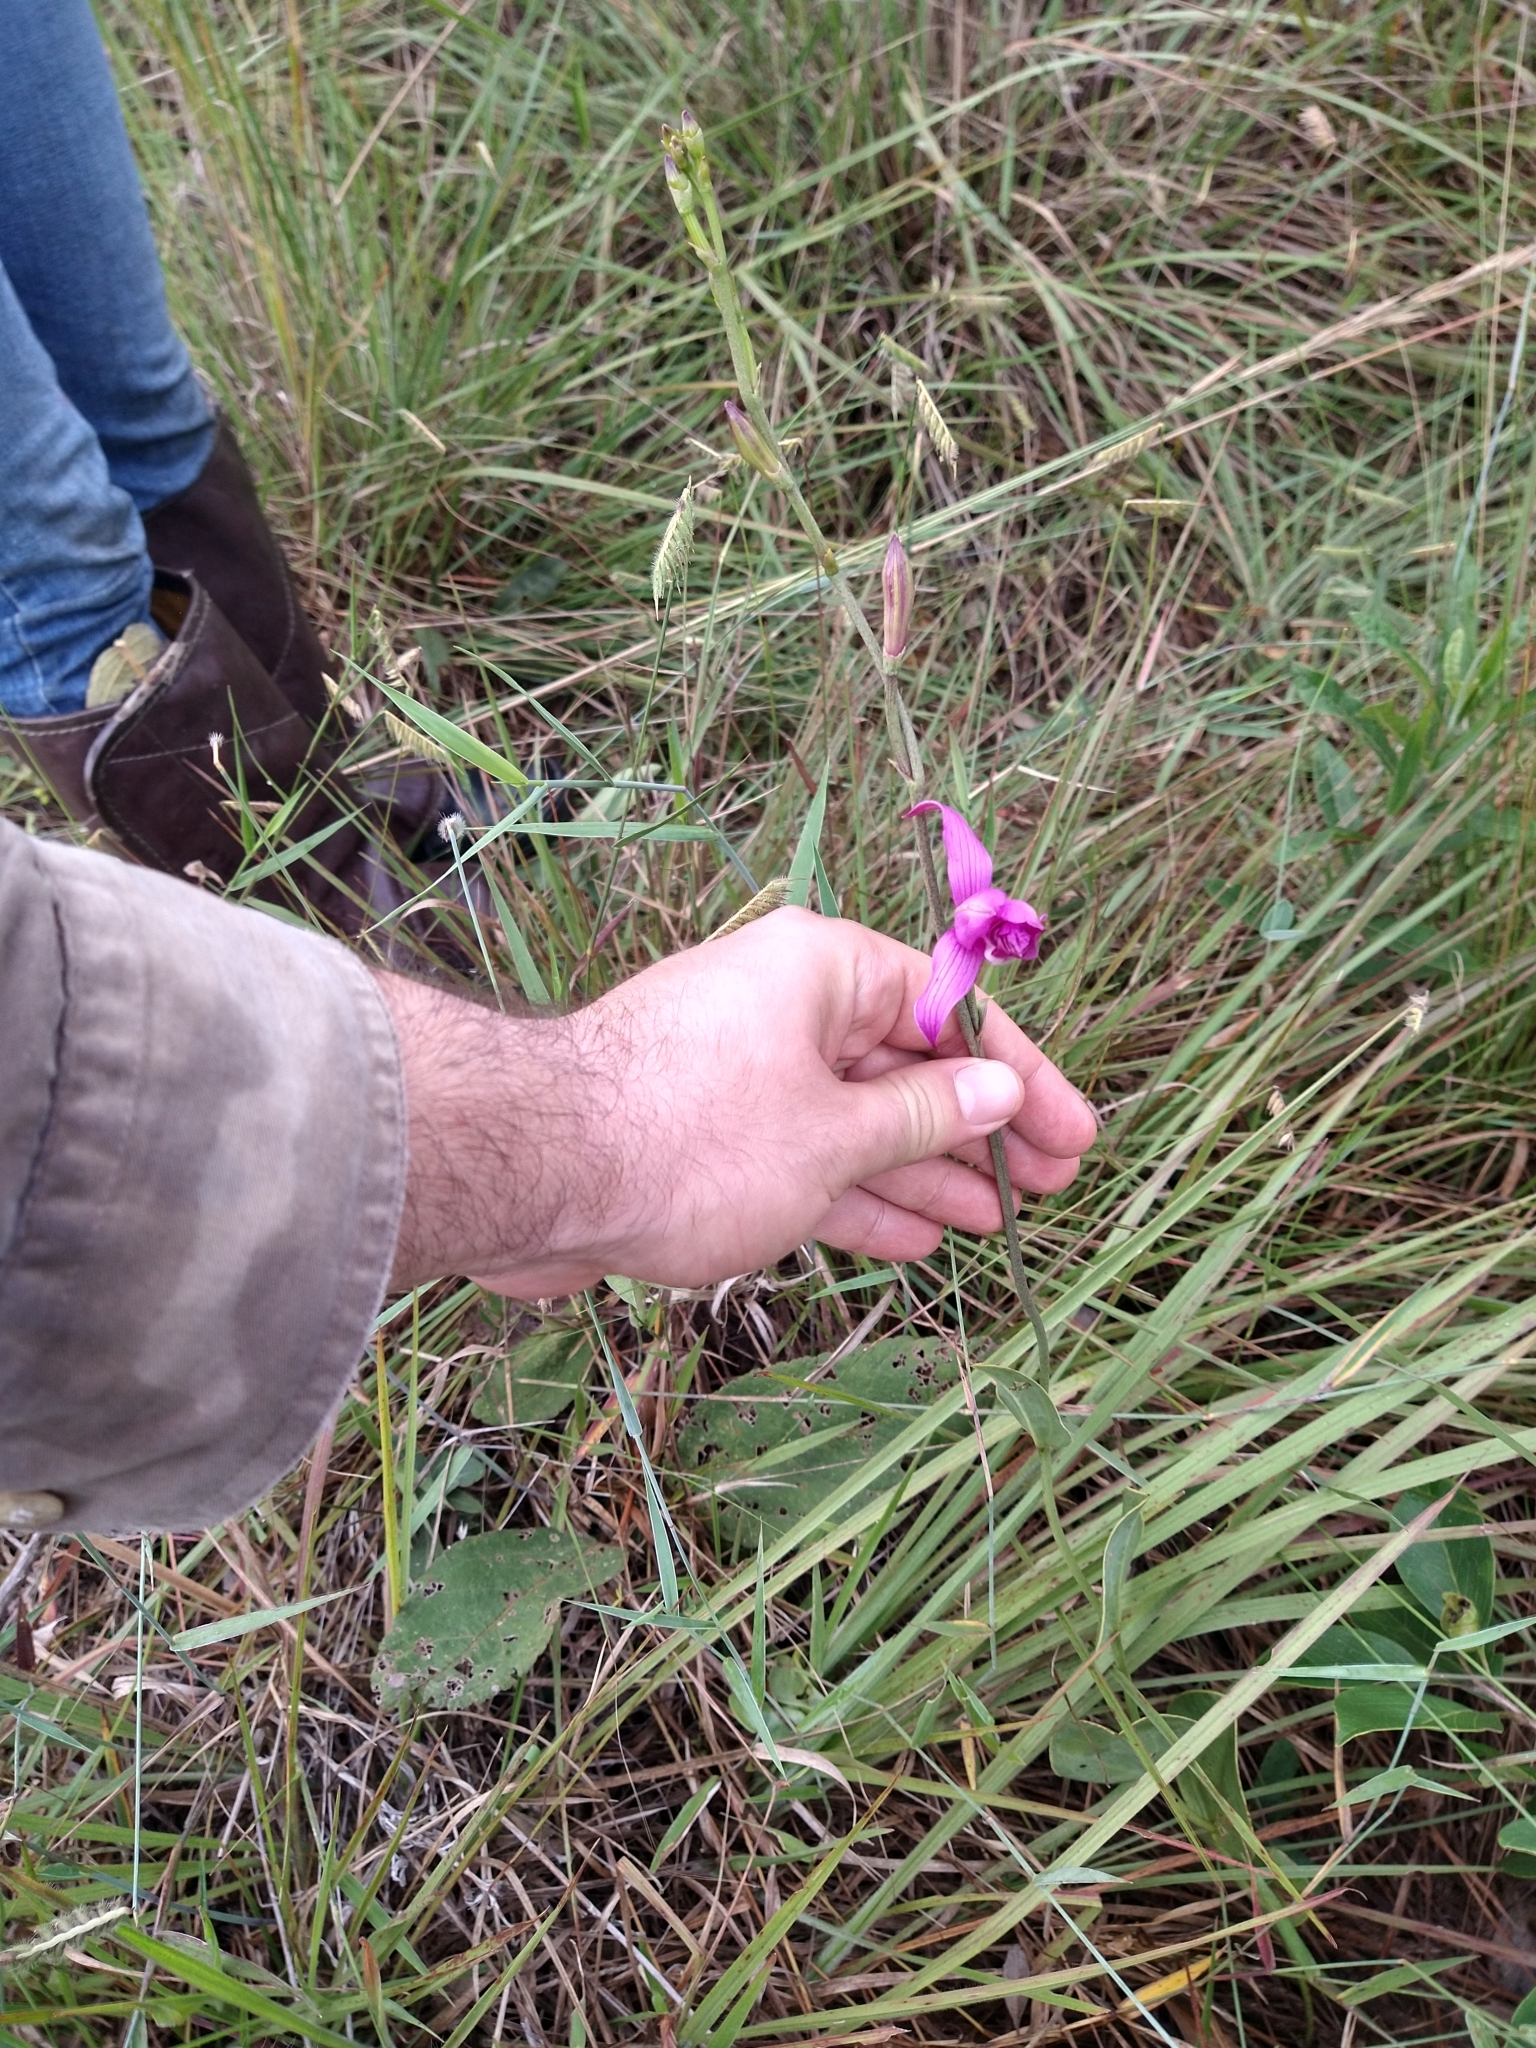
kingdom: Plantae
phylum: Tracheophyta
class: Liliopsida
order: Asparagales
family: Orchidaceae
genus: Epistephium
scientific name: Epistephium sclerophyllum
